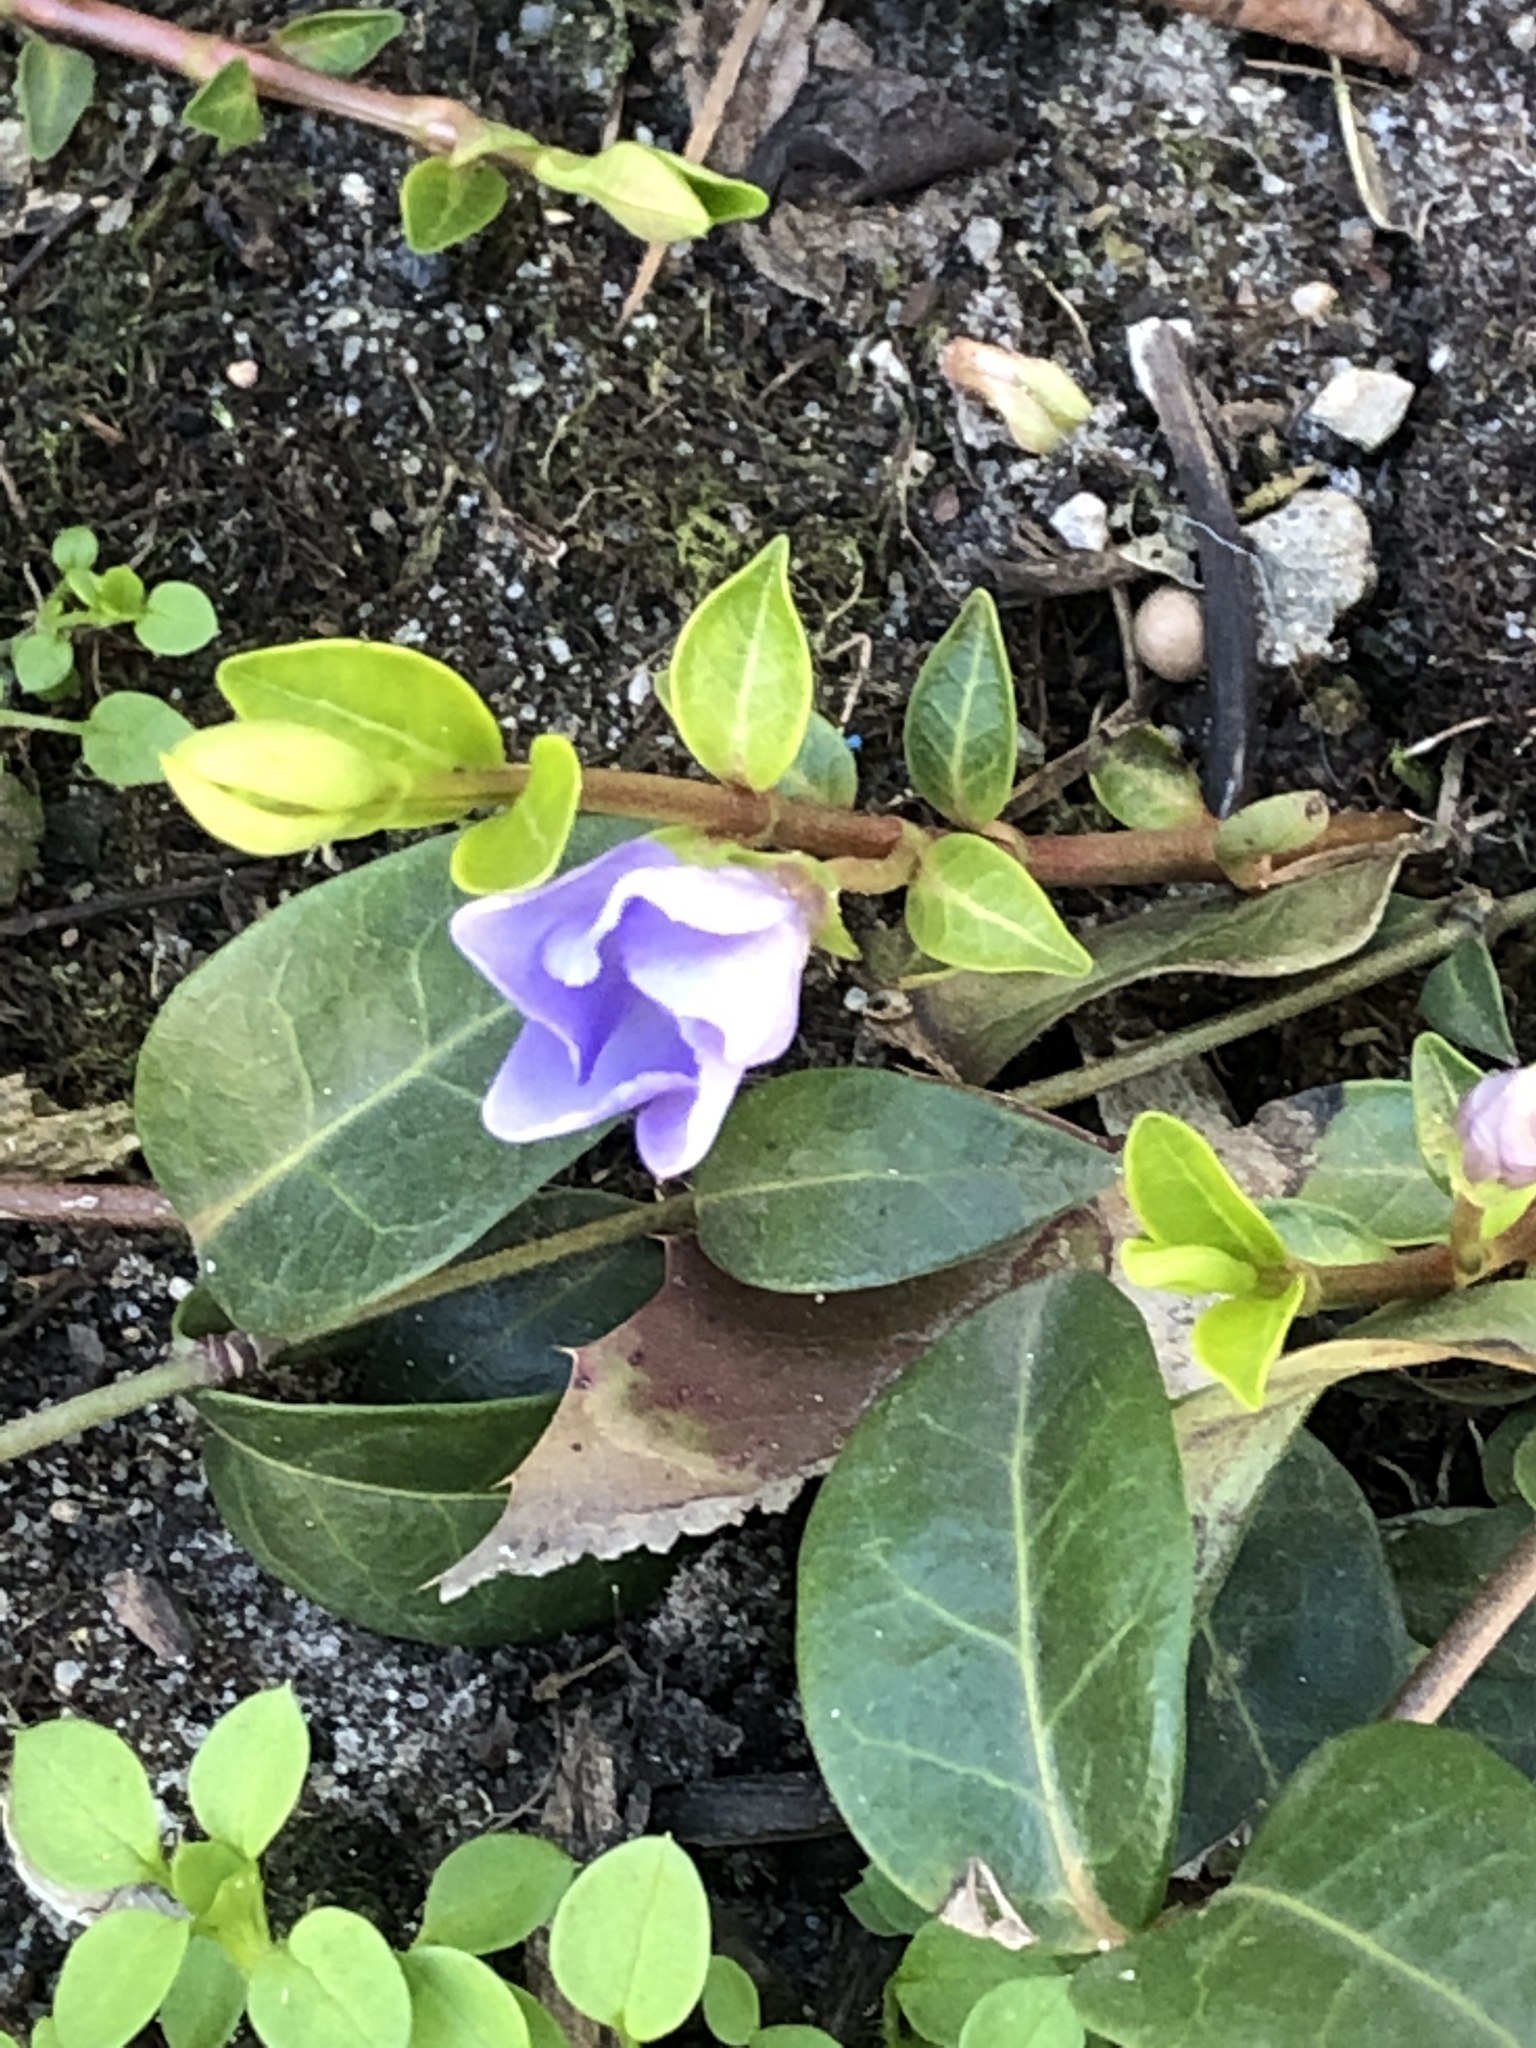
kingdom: Plantae
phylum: Tracheophyta
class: Magnoliopsida
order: Gentianales
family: Apocynaceae
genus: Vinca
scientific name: Vinca minor
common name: Lesser periwinkle
